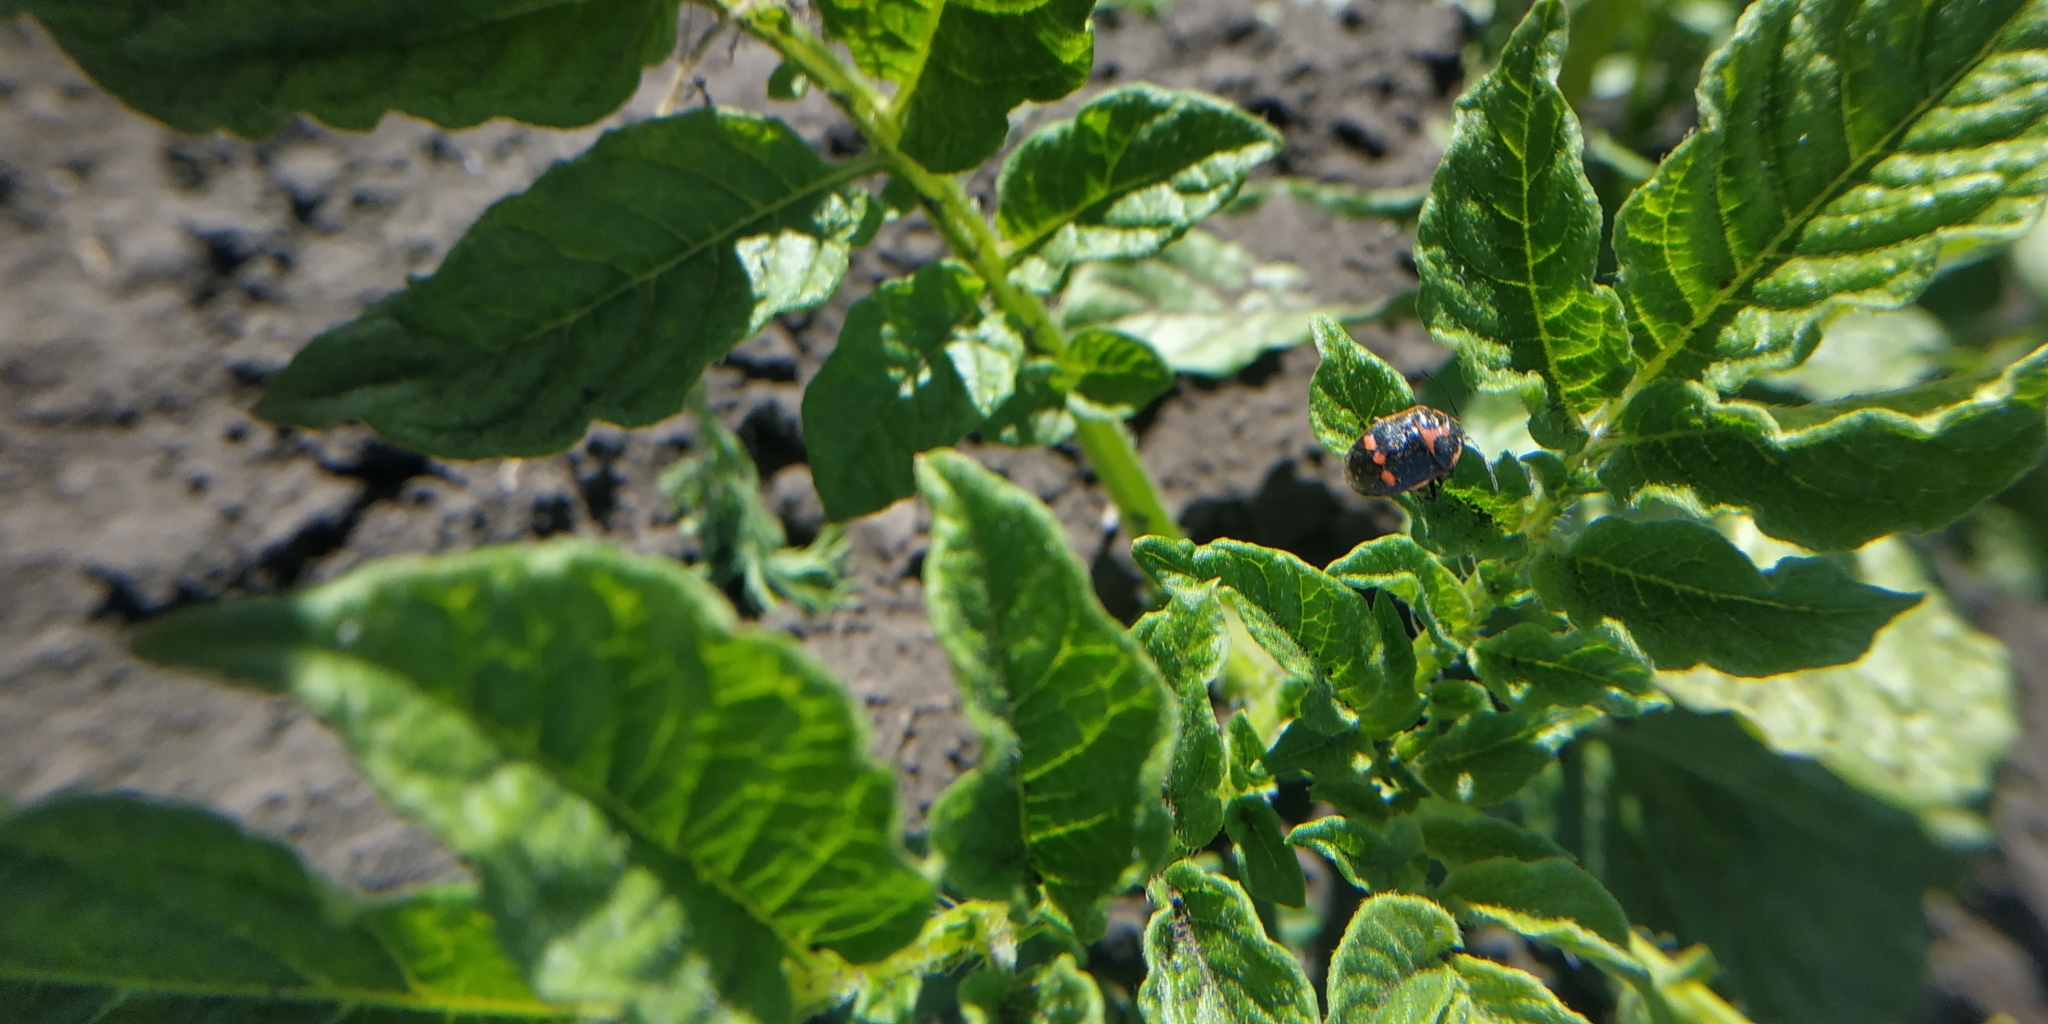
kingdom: Animalia
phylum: Arthropoda
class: Insecta
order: Hemiptera
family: Pentatomidae
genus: Eurydema
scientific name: Eurydema oleracea
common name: Cabbage bug
